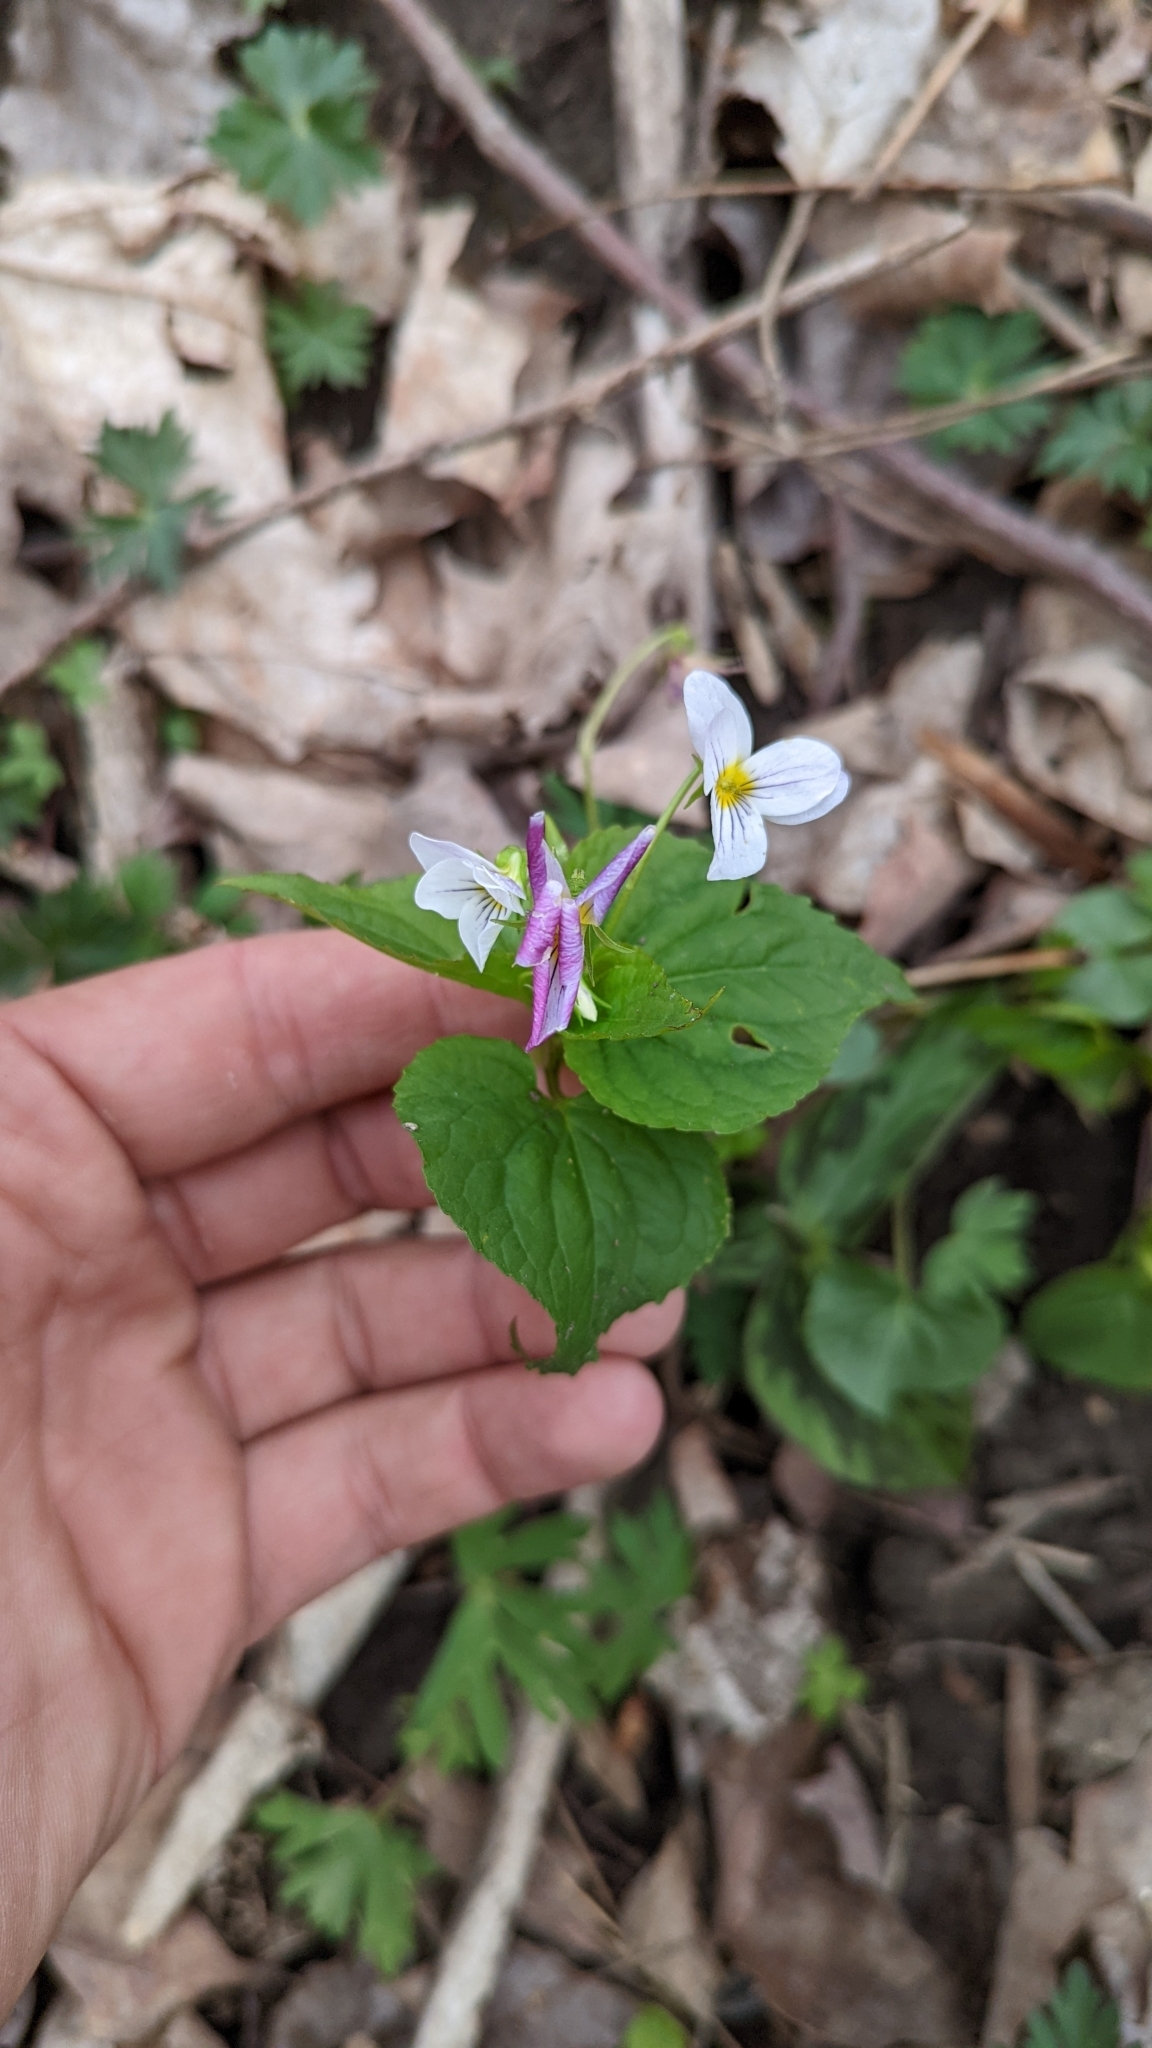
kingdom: Plantae
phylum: Tracheophyta
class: Magnoliopsida
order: Malpighiales
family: Violaceae
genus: Viola
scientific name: Viola canadensis
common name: Canada violet
